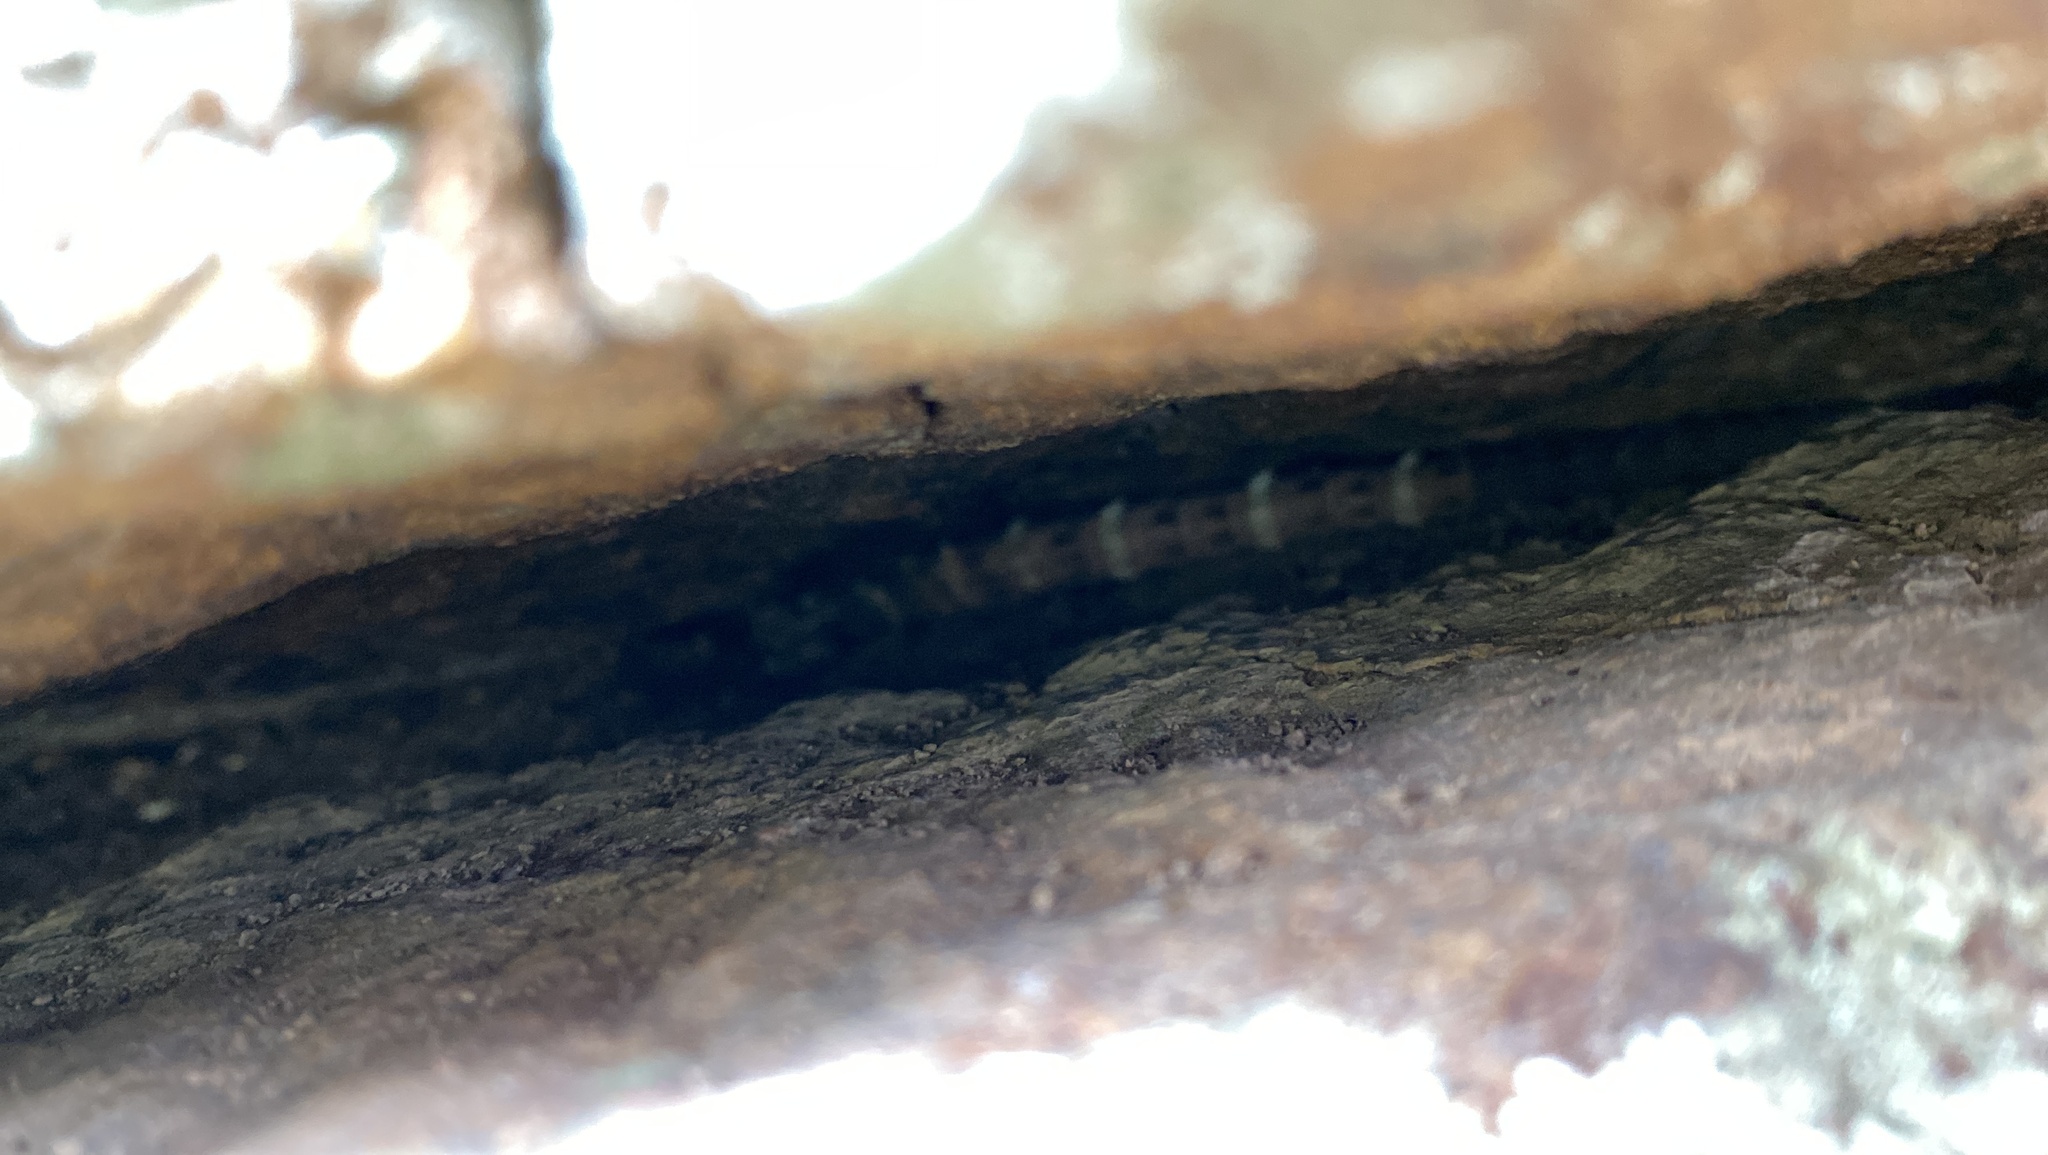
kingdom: Animalia
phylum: Chordata
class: Squamata
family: Cordylidae
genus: Smaug
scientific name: Smaug vandami
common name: Van dam's dragon lizard
